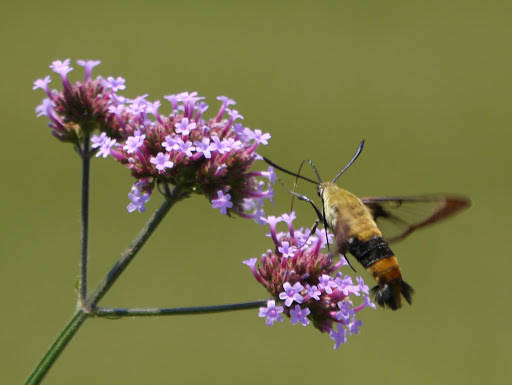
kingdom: Animalia
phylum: Arthropoda
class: Insecta
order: Lepidoptera
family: Sphingidae
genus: Hemaris
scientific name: Hemaris diffinis
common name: Bumblebee moth
